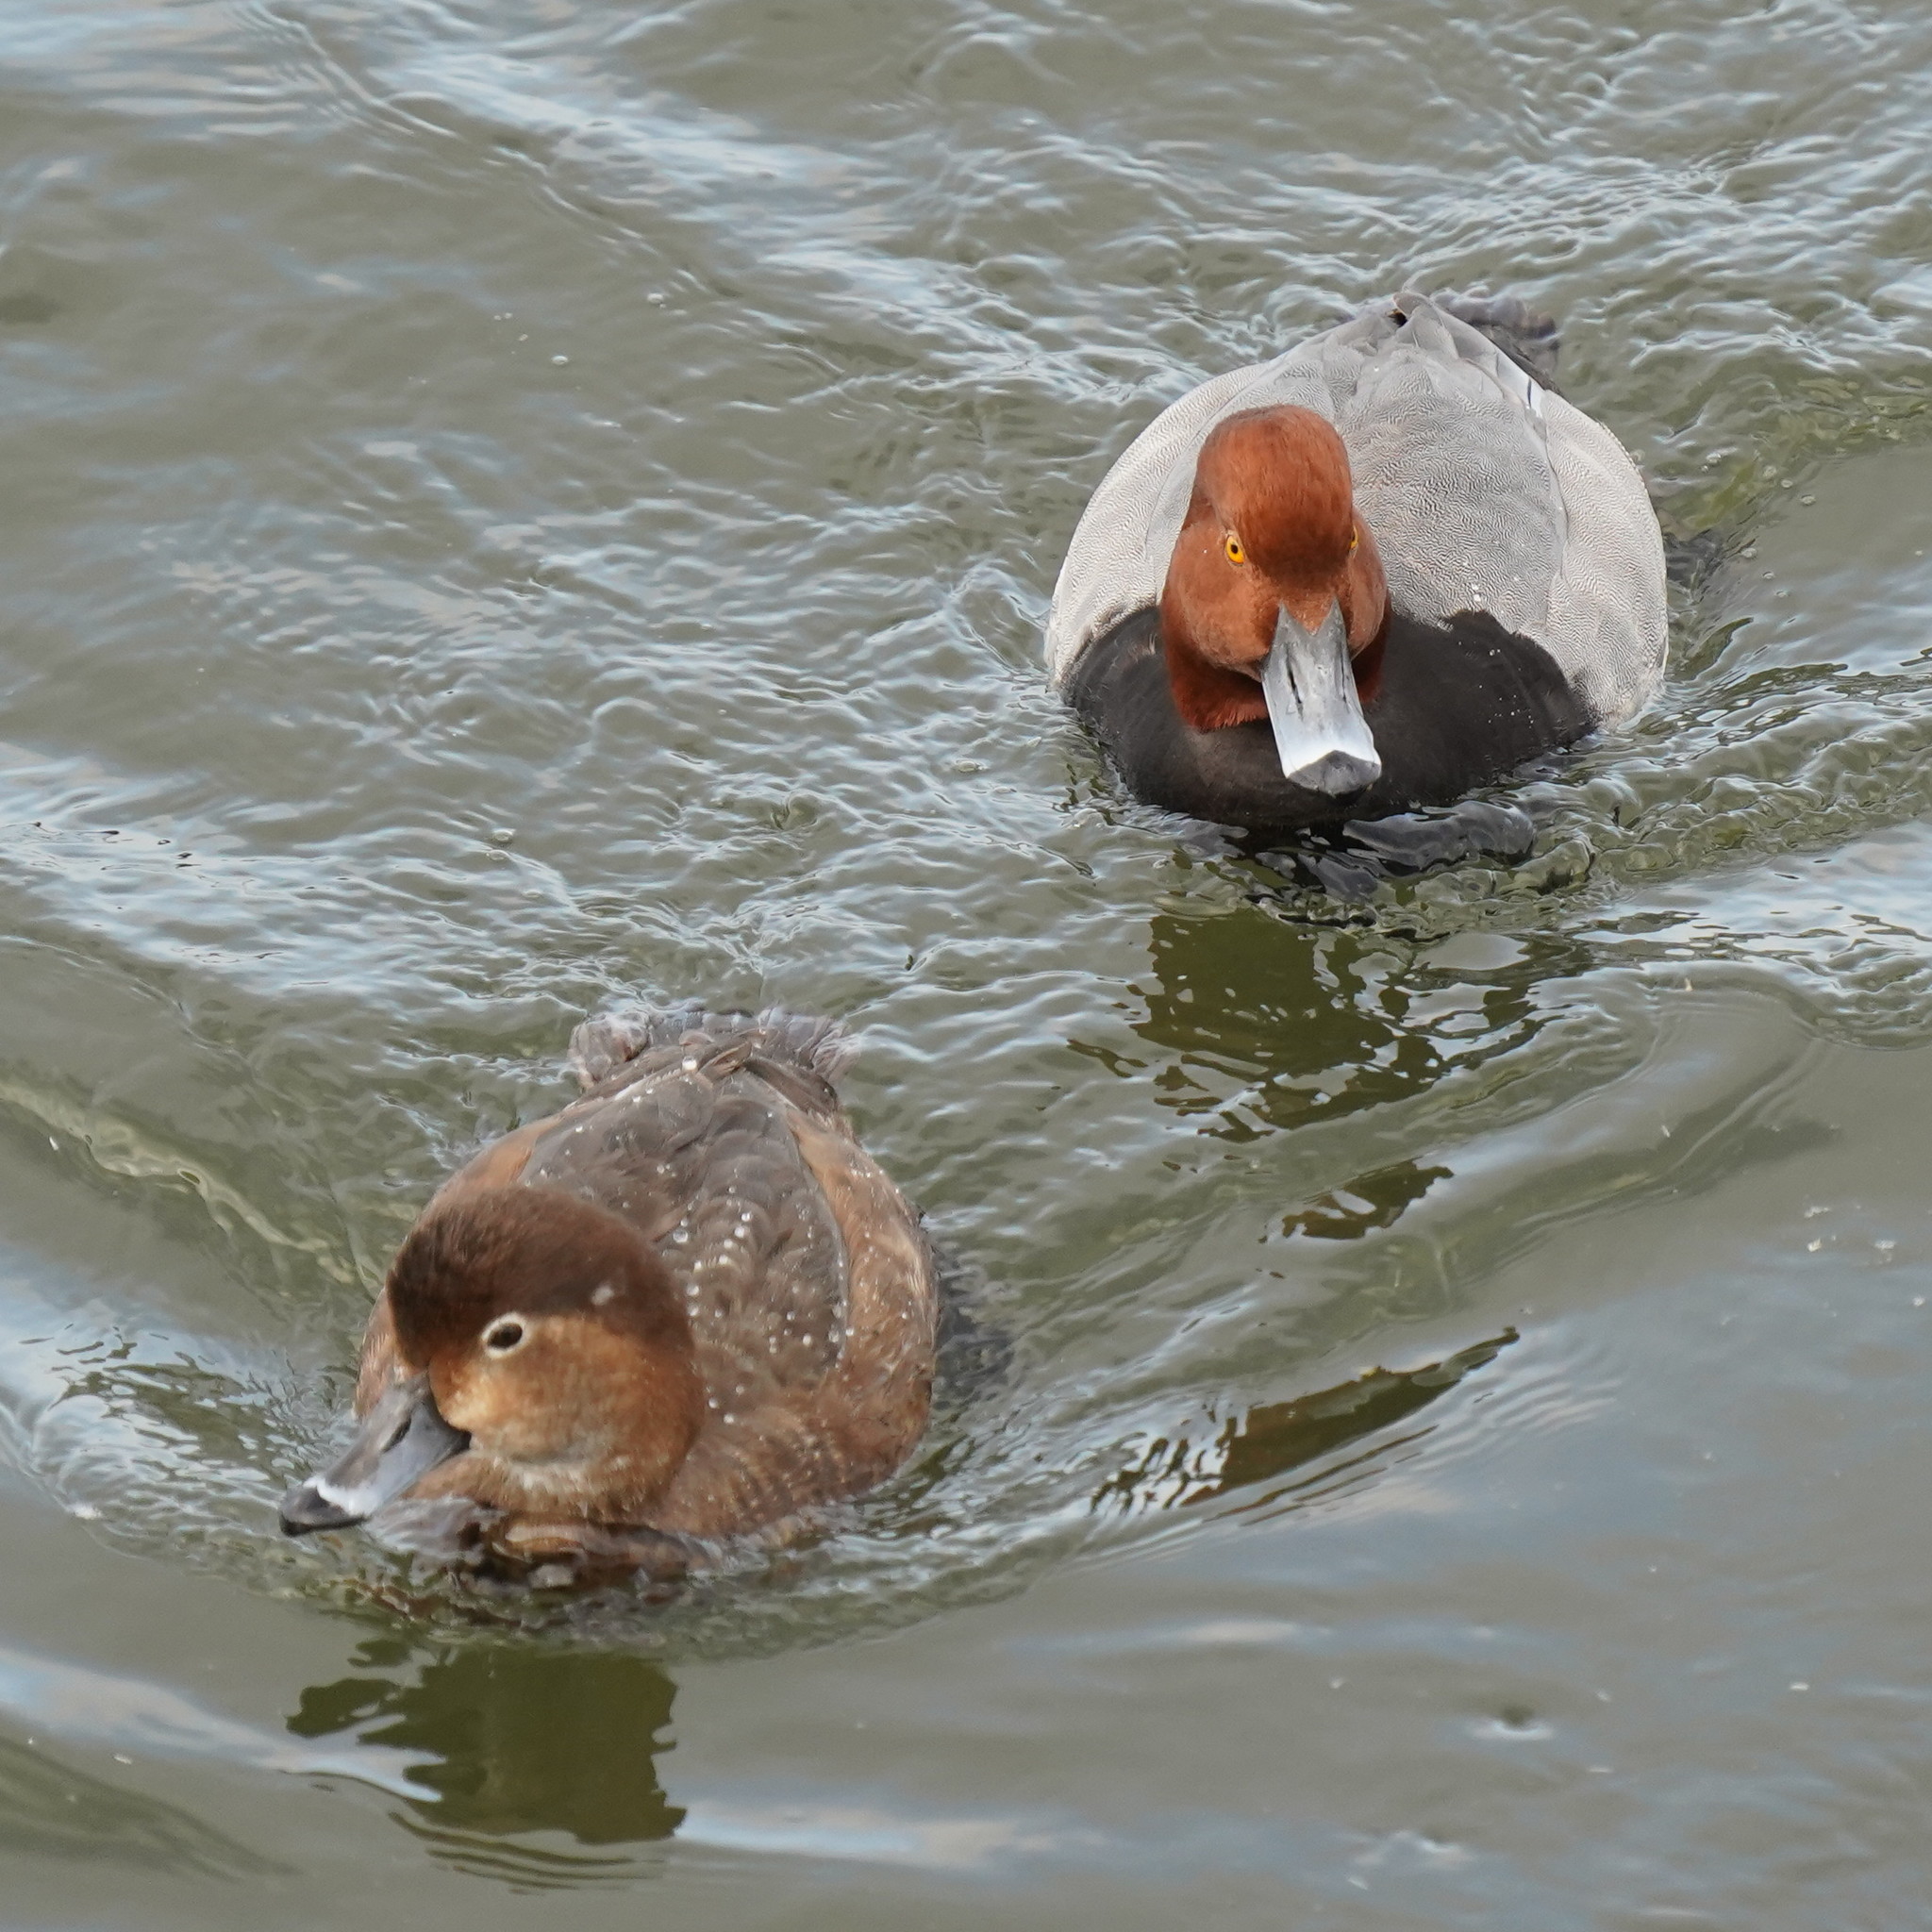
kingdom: Animalia
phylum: Chordata
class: Aves
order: Anseriformes
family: Anatidae
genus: Aythya
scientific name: Aythya americana
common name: Redhead
